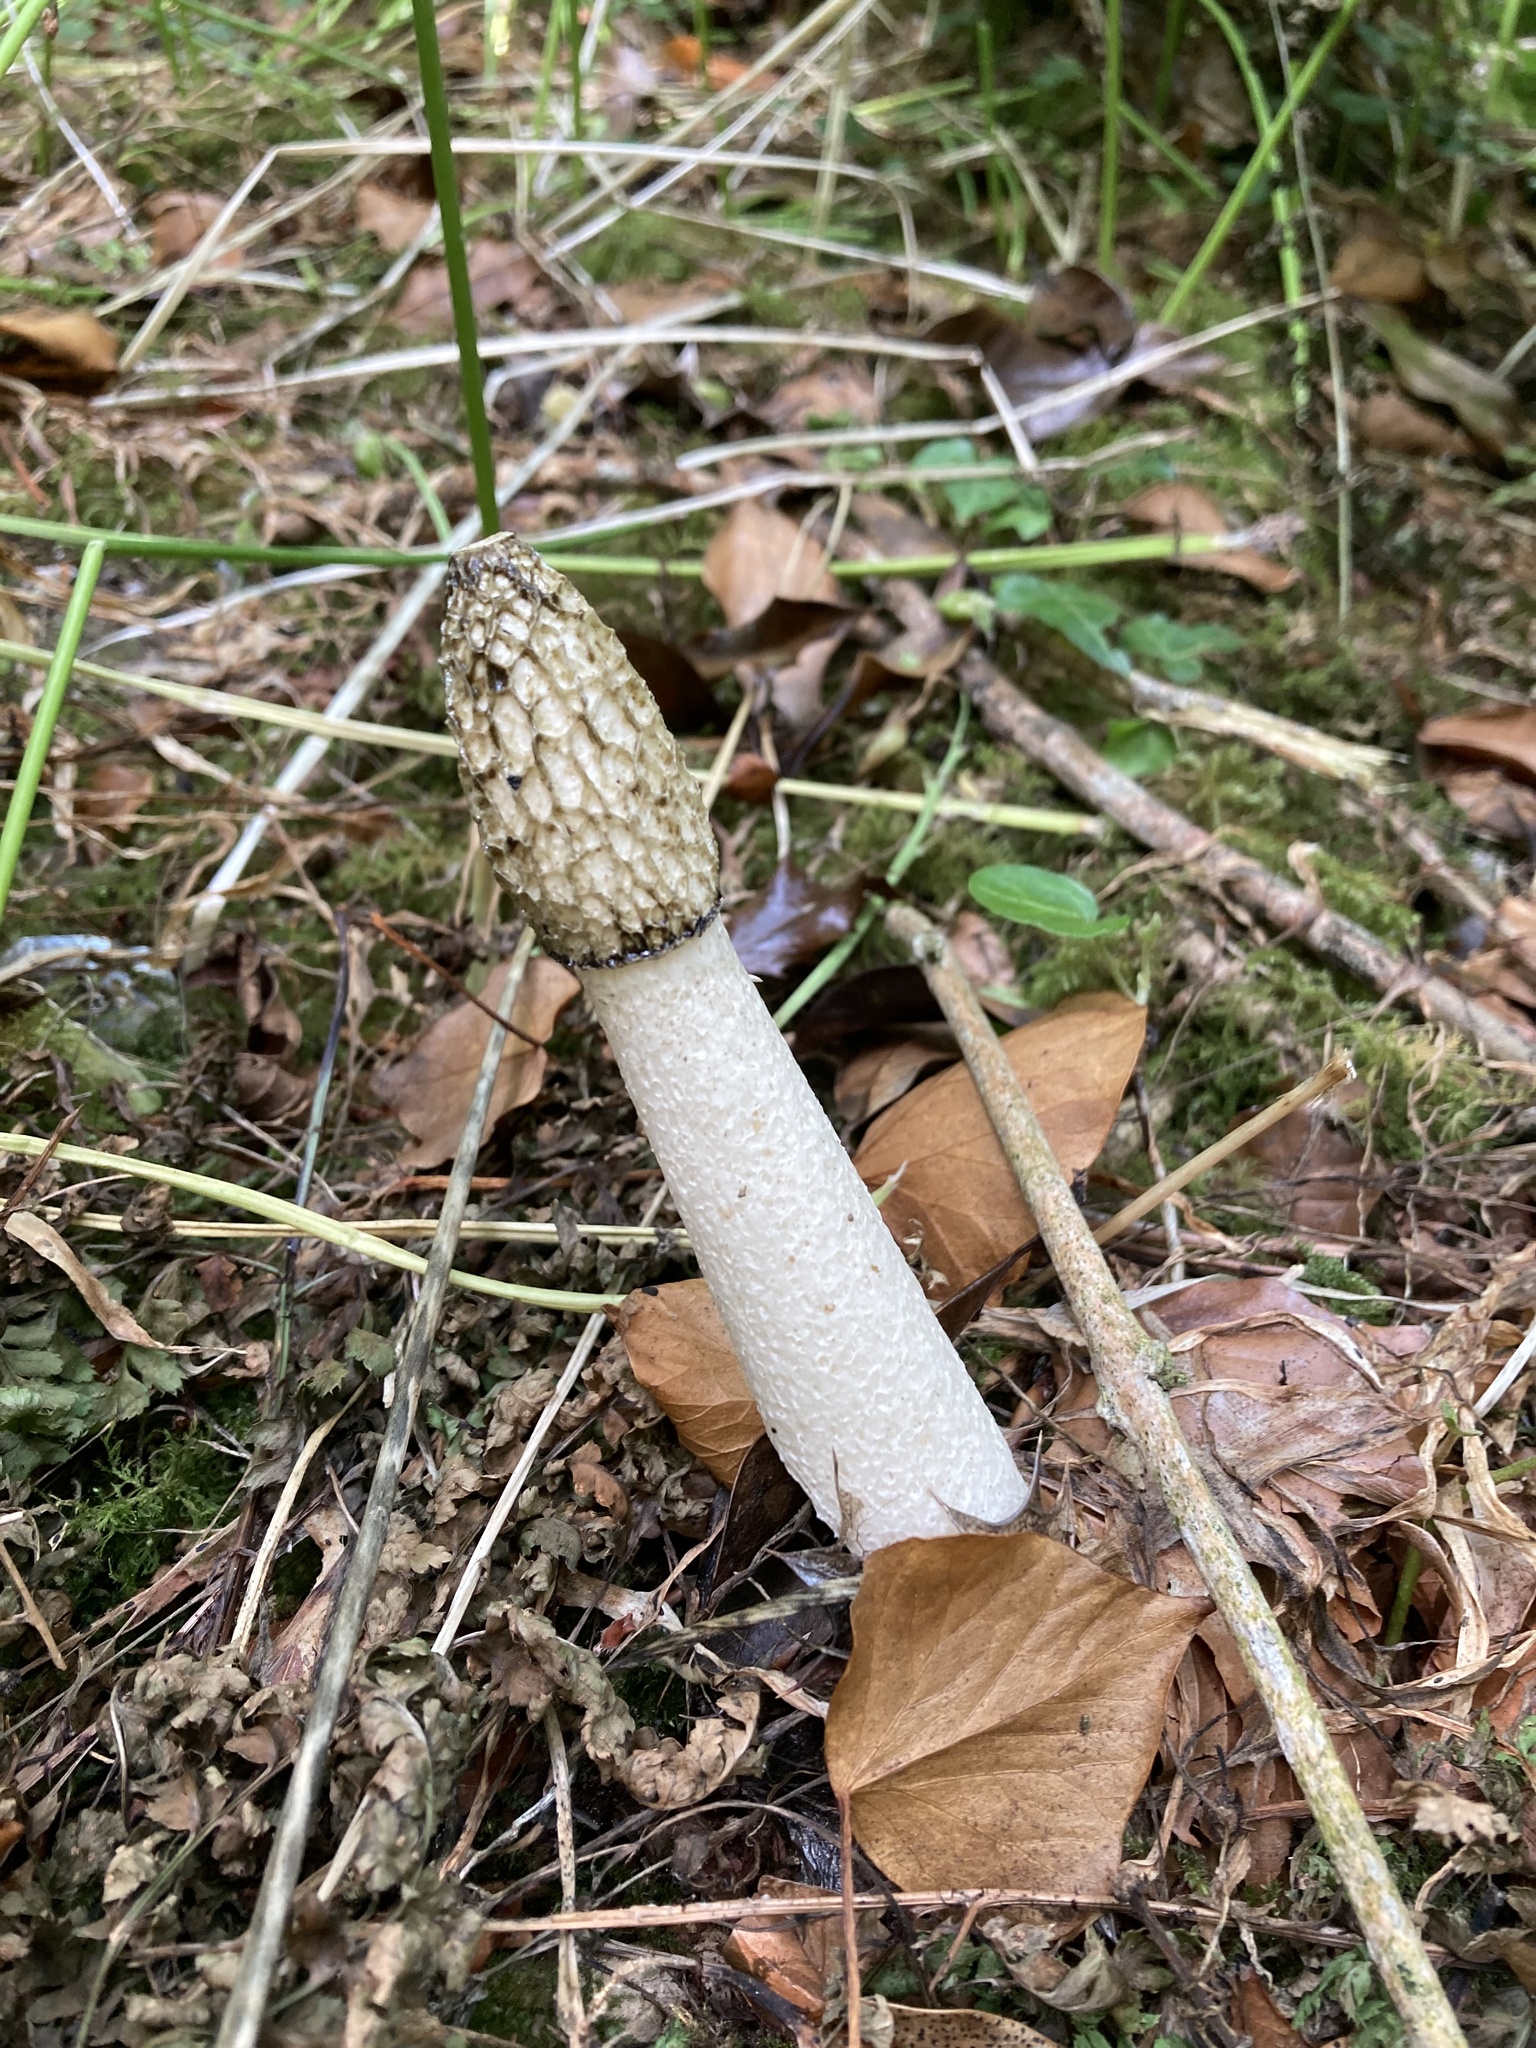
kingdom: Fungi
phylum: Basidiomycota
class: Agaricomycetes
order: Phallales
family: Phallaceae
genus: Phallus
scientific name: Phallus impudicus
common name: Common stinkhorn
